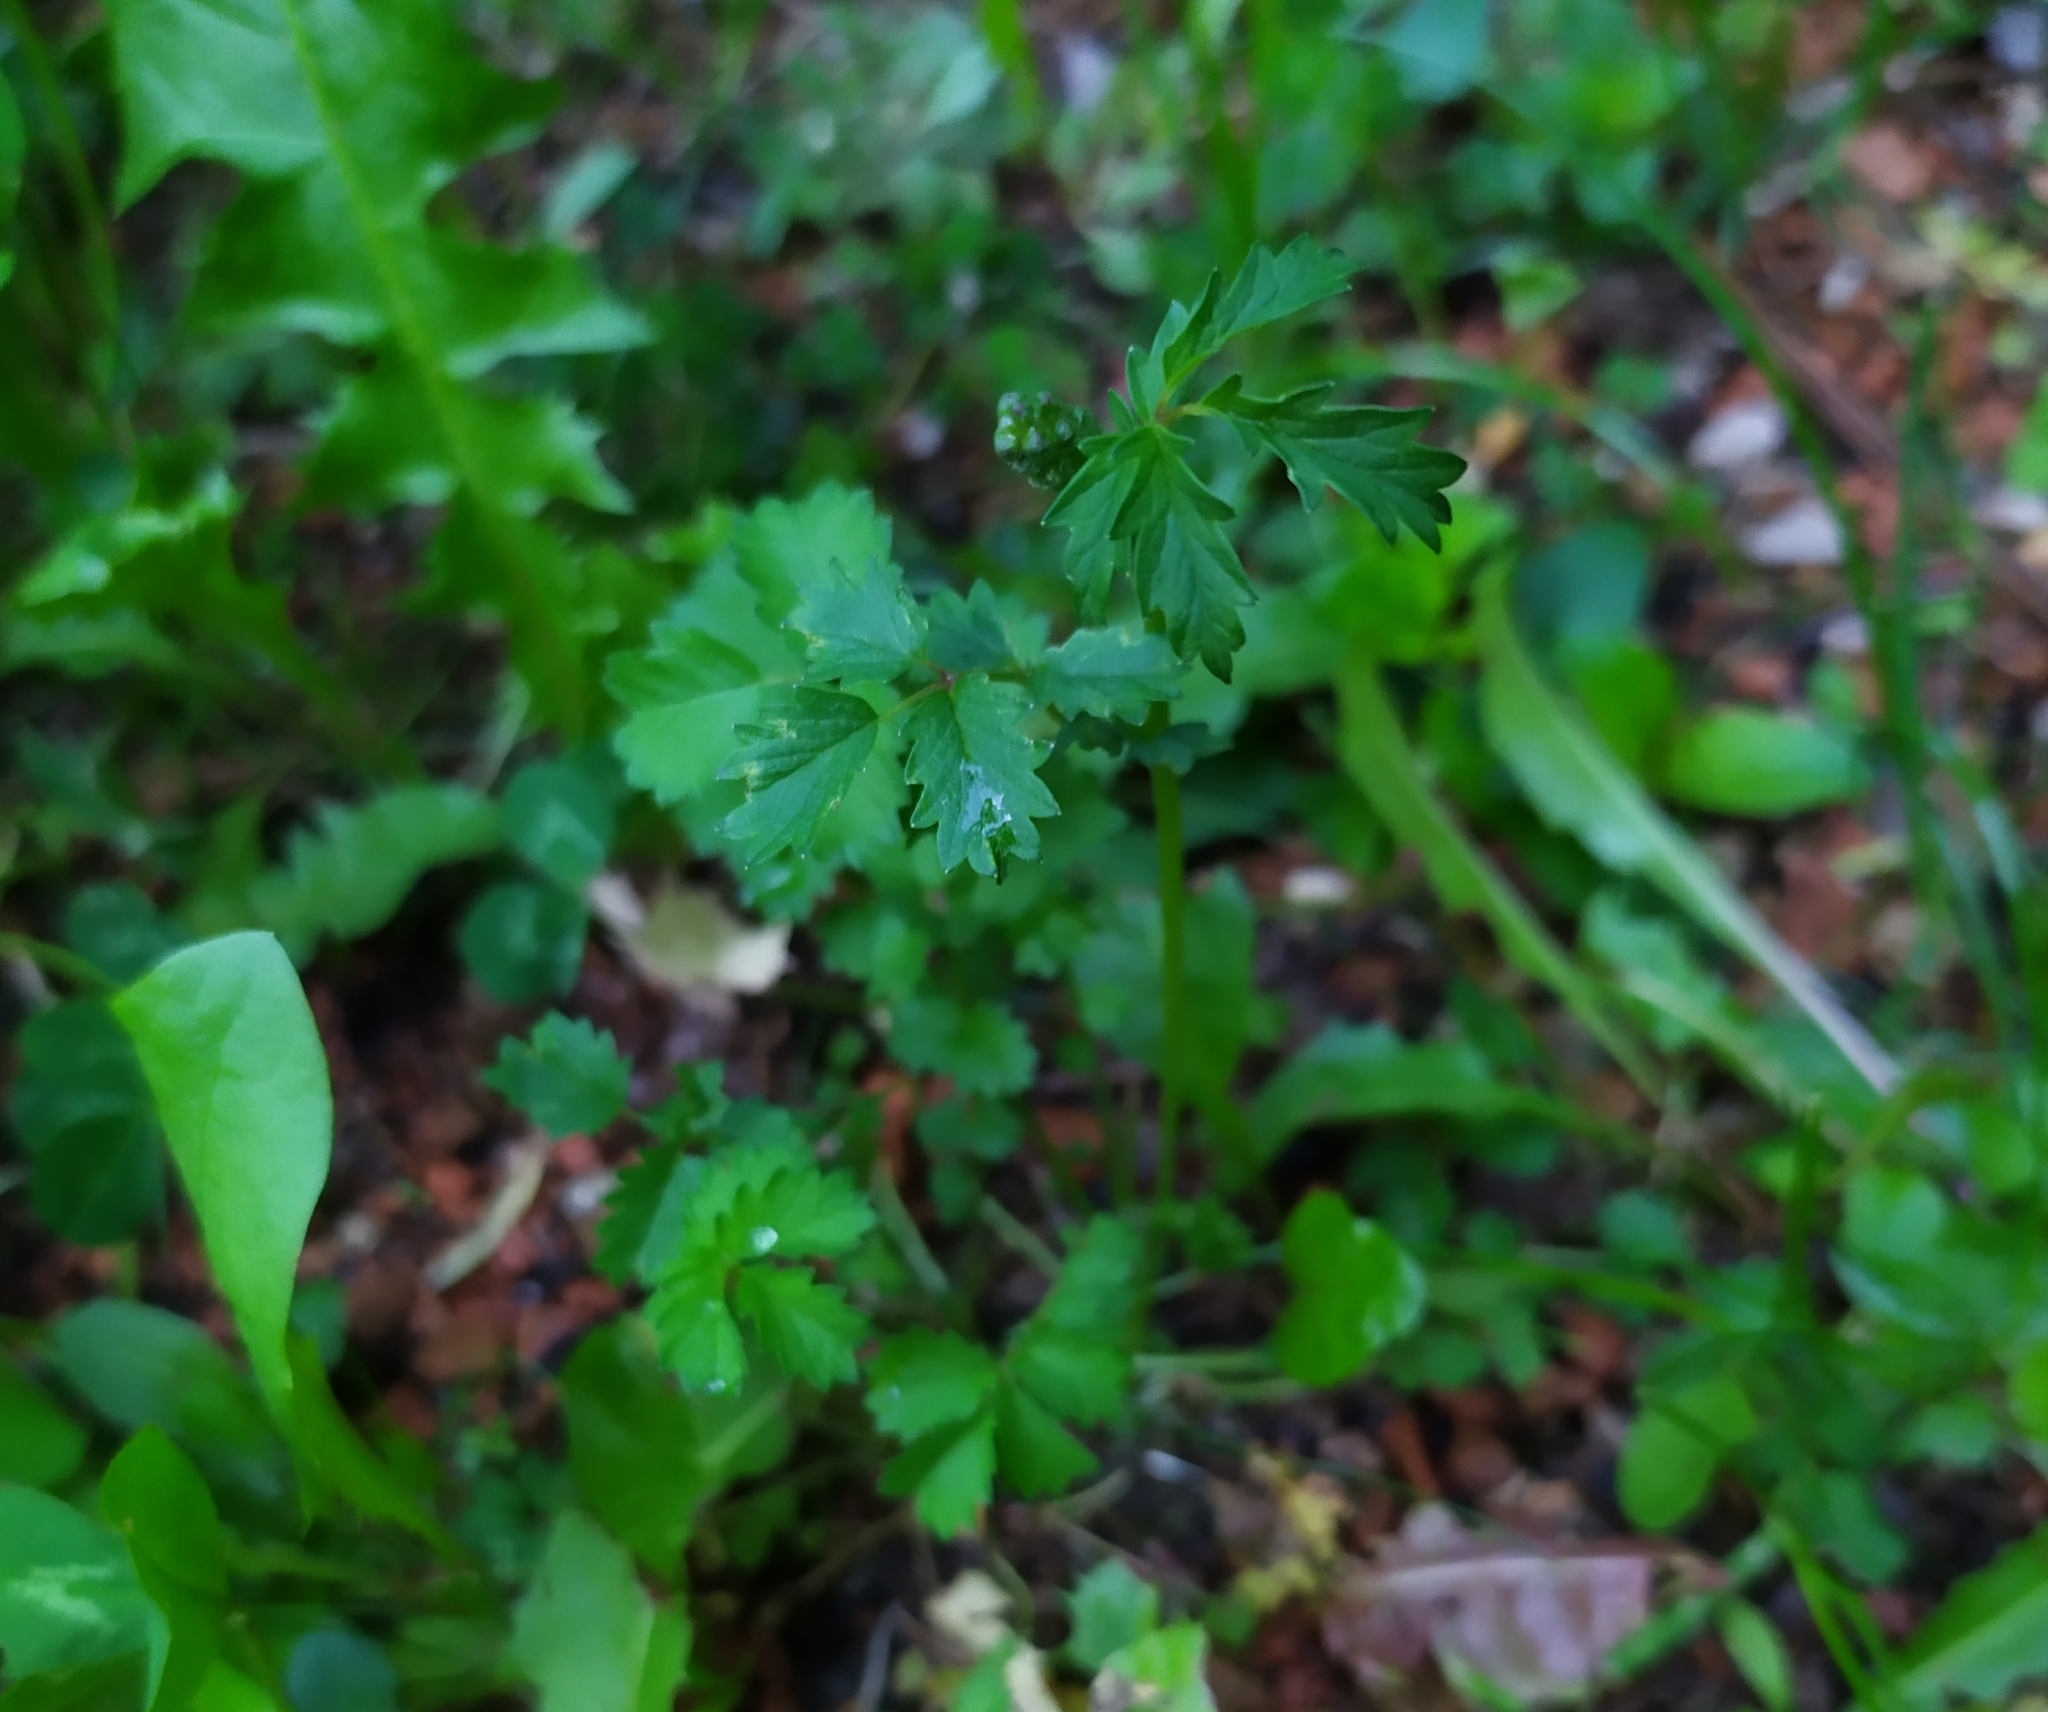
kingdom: Plantae
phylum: Tracheophyta
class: Magnoliopsida
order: Rosales
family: Rosaceae
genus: Poterium
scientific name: Poterium sanguisorba
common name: Salad burnet
